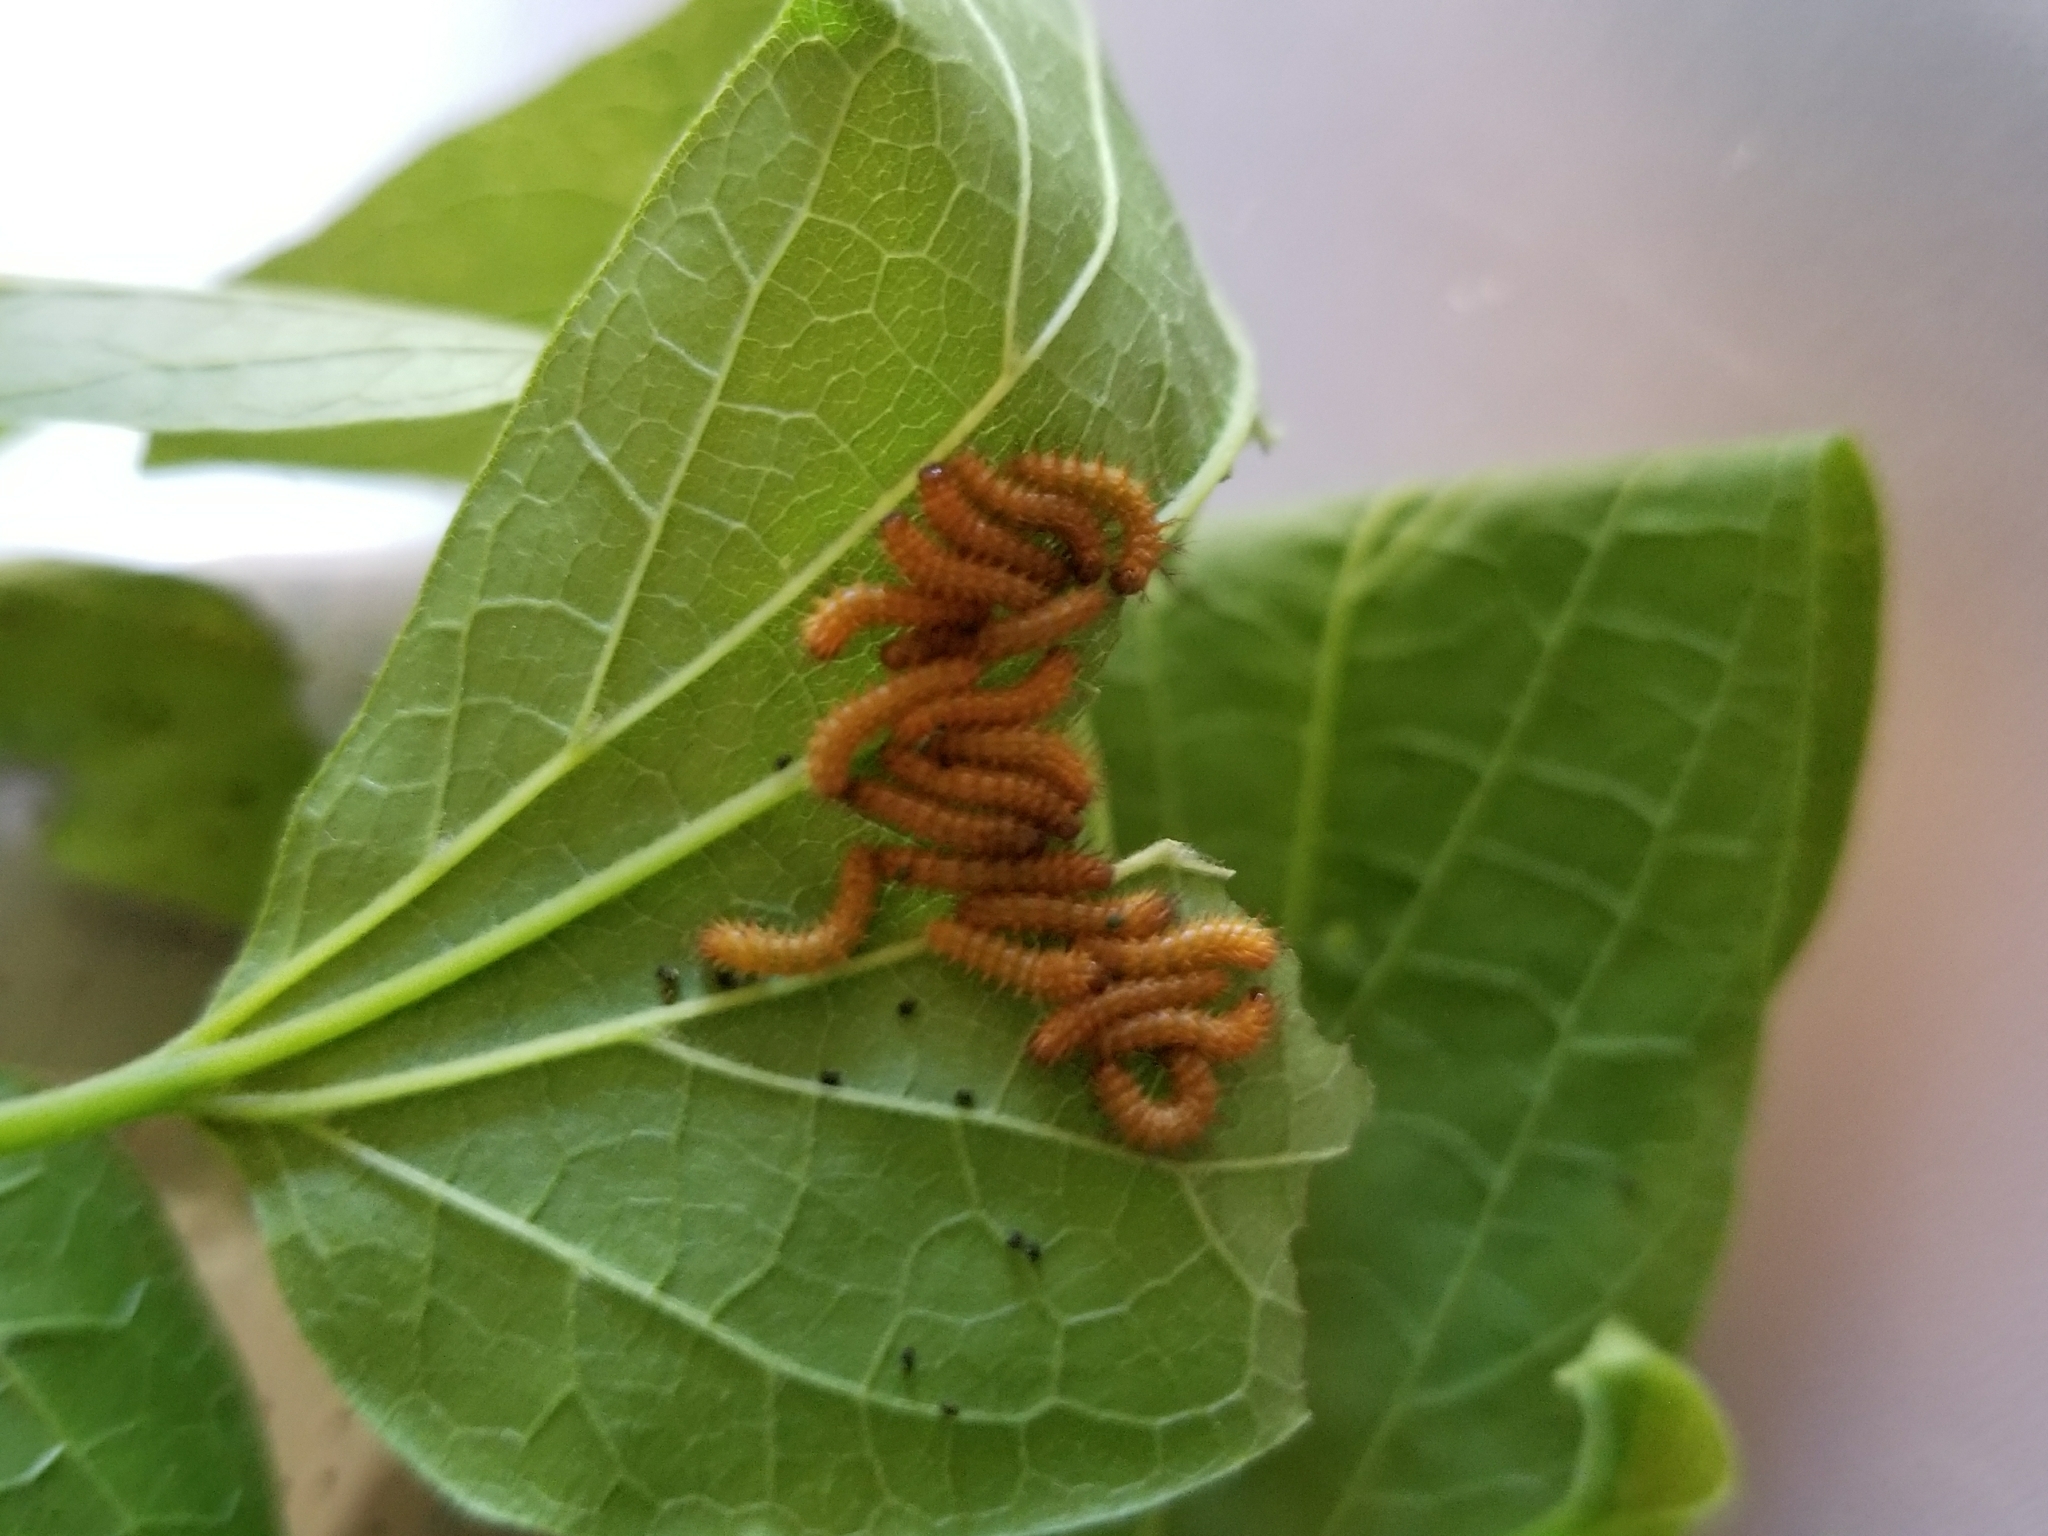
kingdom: Animalia
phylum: Arthropoda
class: Insecta
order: Lepidoptera
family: Saturniidae
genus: Automeris
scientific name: Automeris io
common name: Io moth
